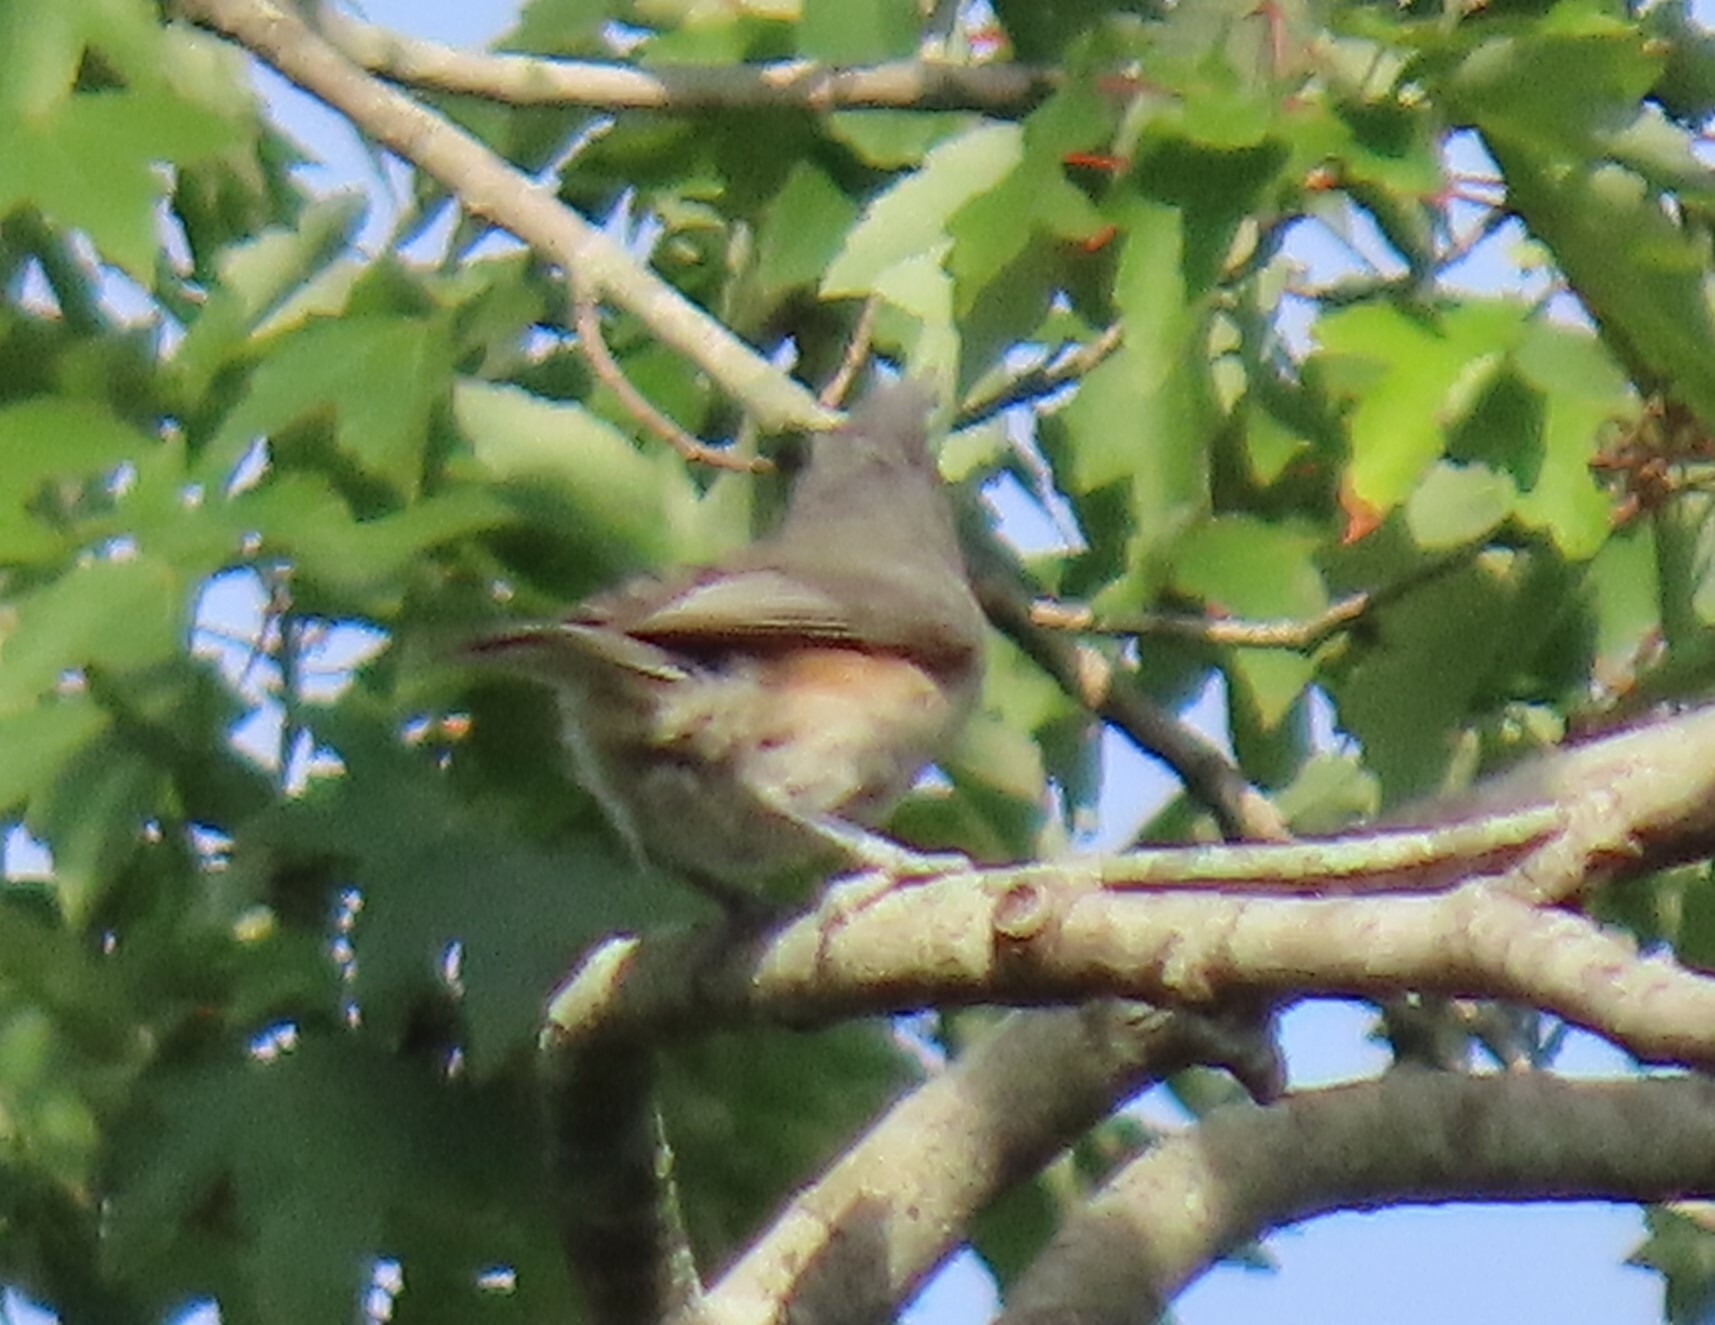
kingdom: Animalia
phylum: Chordata
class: Aves
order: Passeriformes
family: Paridae
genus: Baeolophus
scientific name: Baeolophus bicolor
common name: Tufted titmouse
